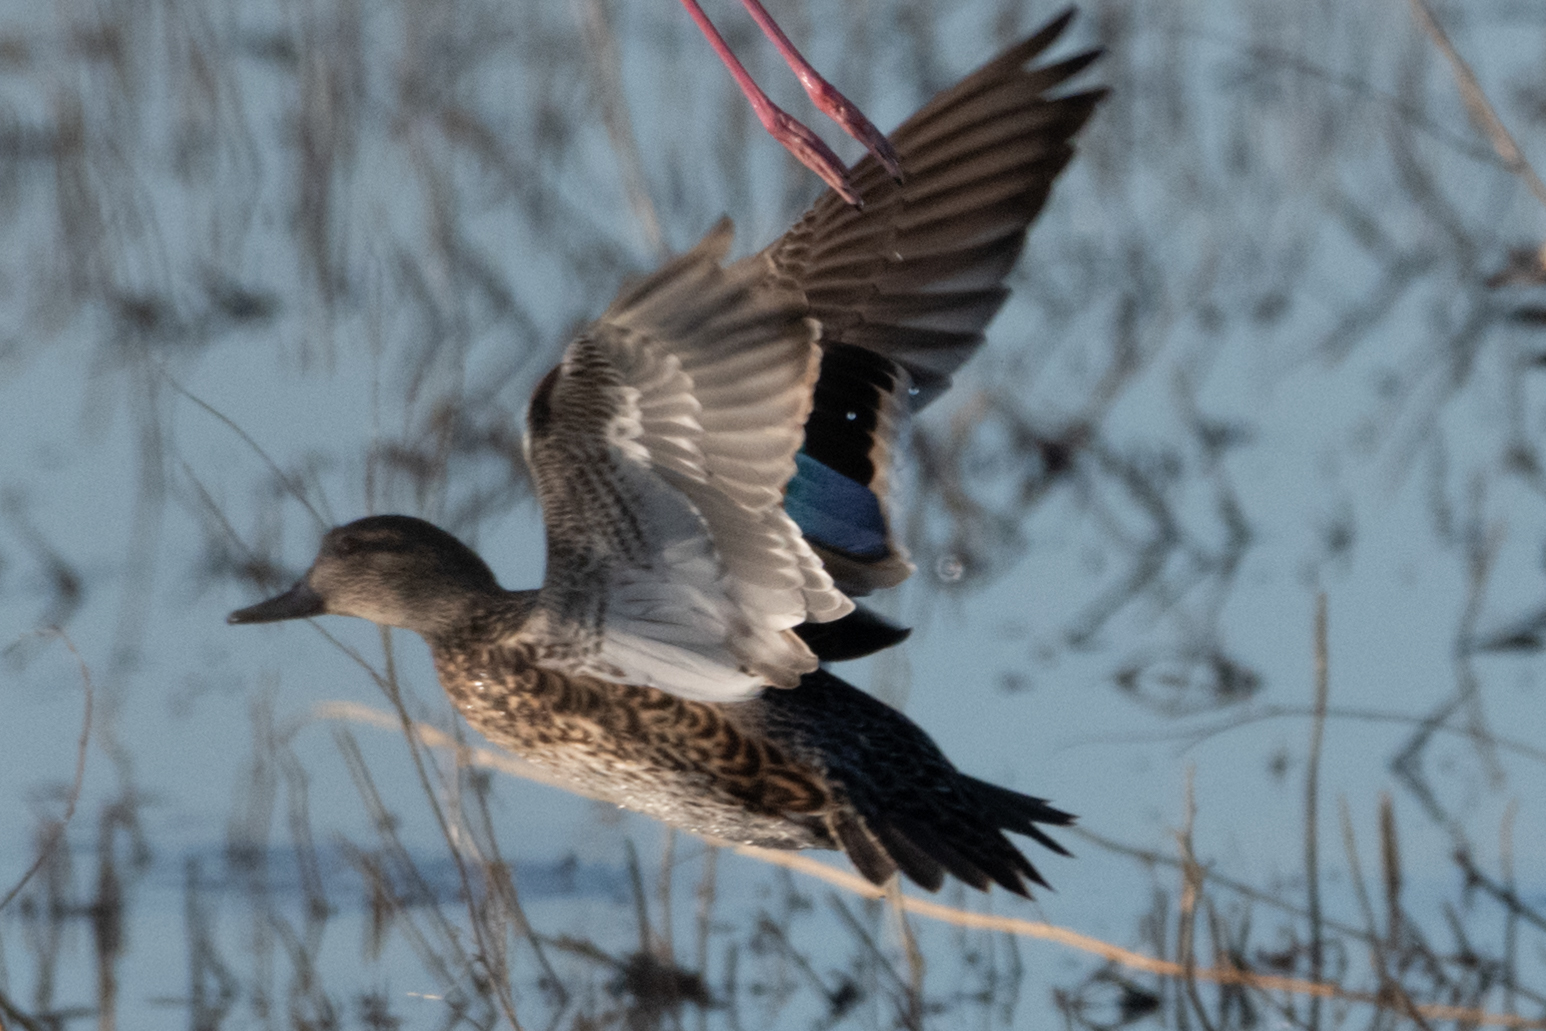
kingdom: Animalia
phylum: Chordata
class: Aves
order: Anseriformes
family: Anatidae
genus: Anas
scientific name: Anas crecca
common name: Eurasian teal
